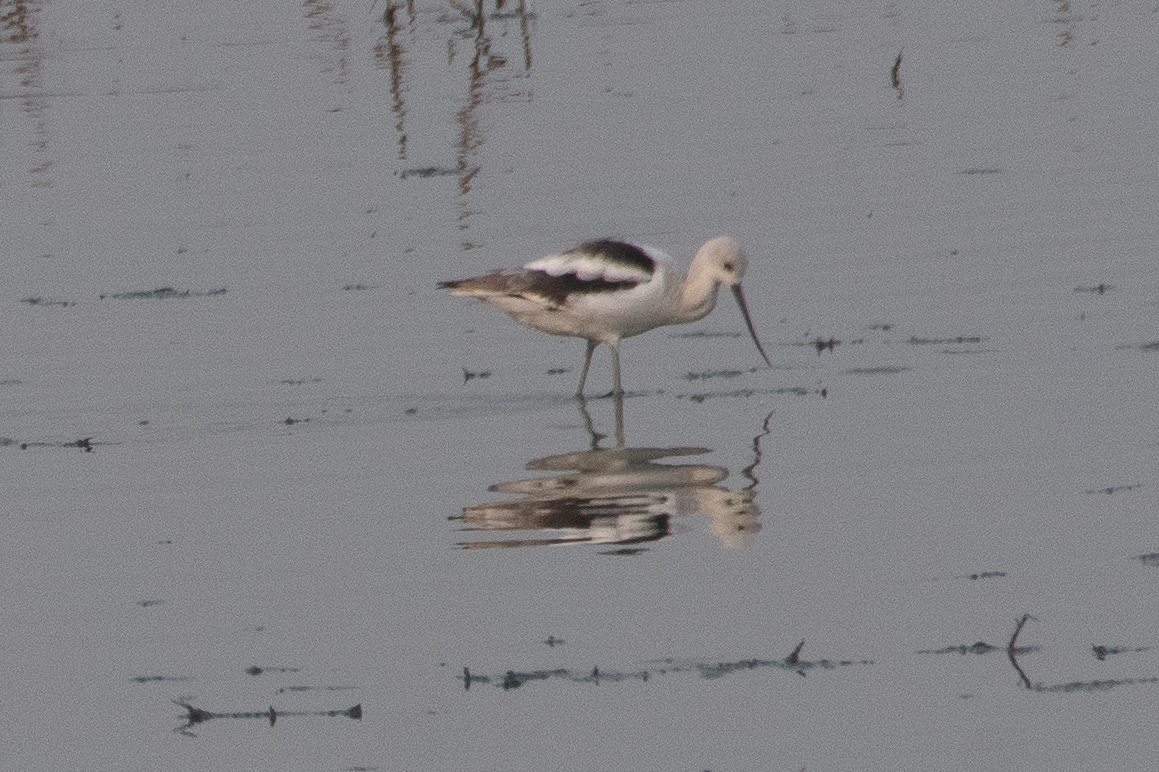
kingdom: Animalia
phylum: Chordata
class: Aves
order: Charadriiformes
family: Recurvirostridae
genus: Recurvirostra
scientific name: Recurvirostra americana
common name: American avocet
